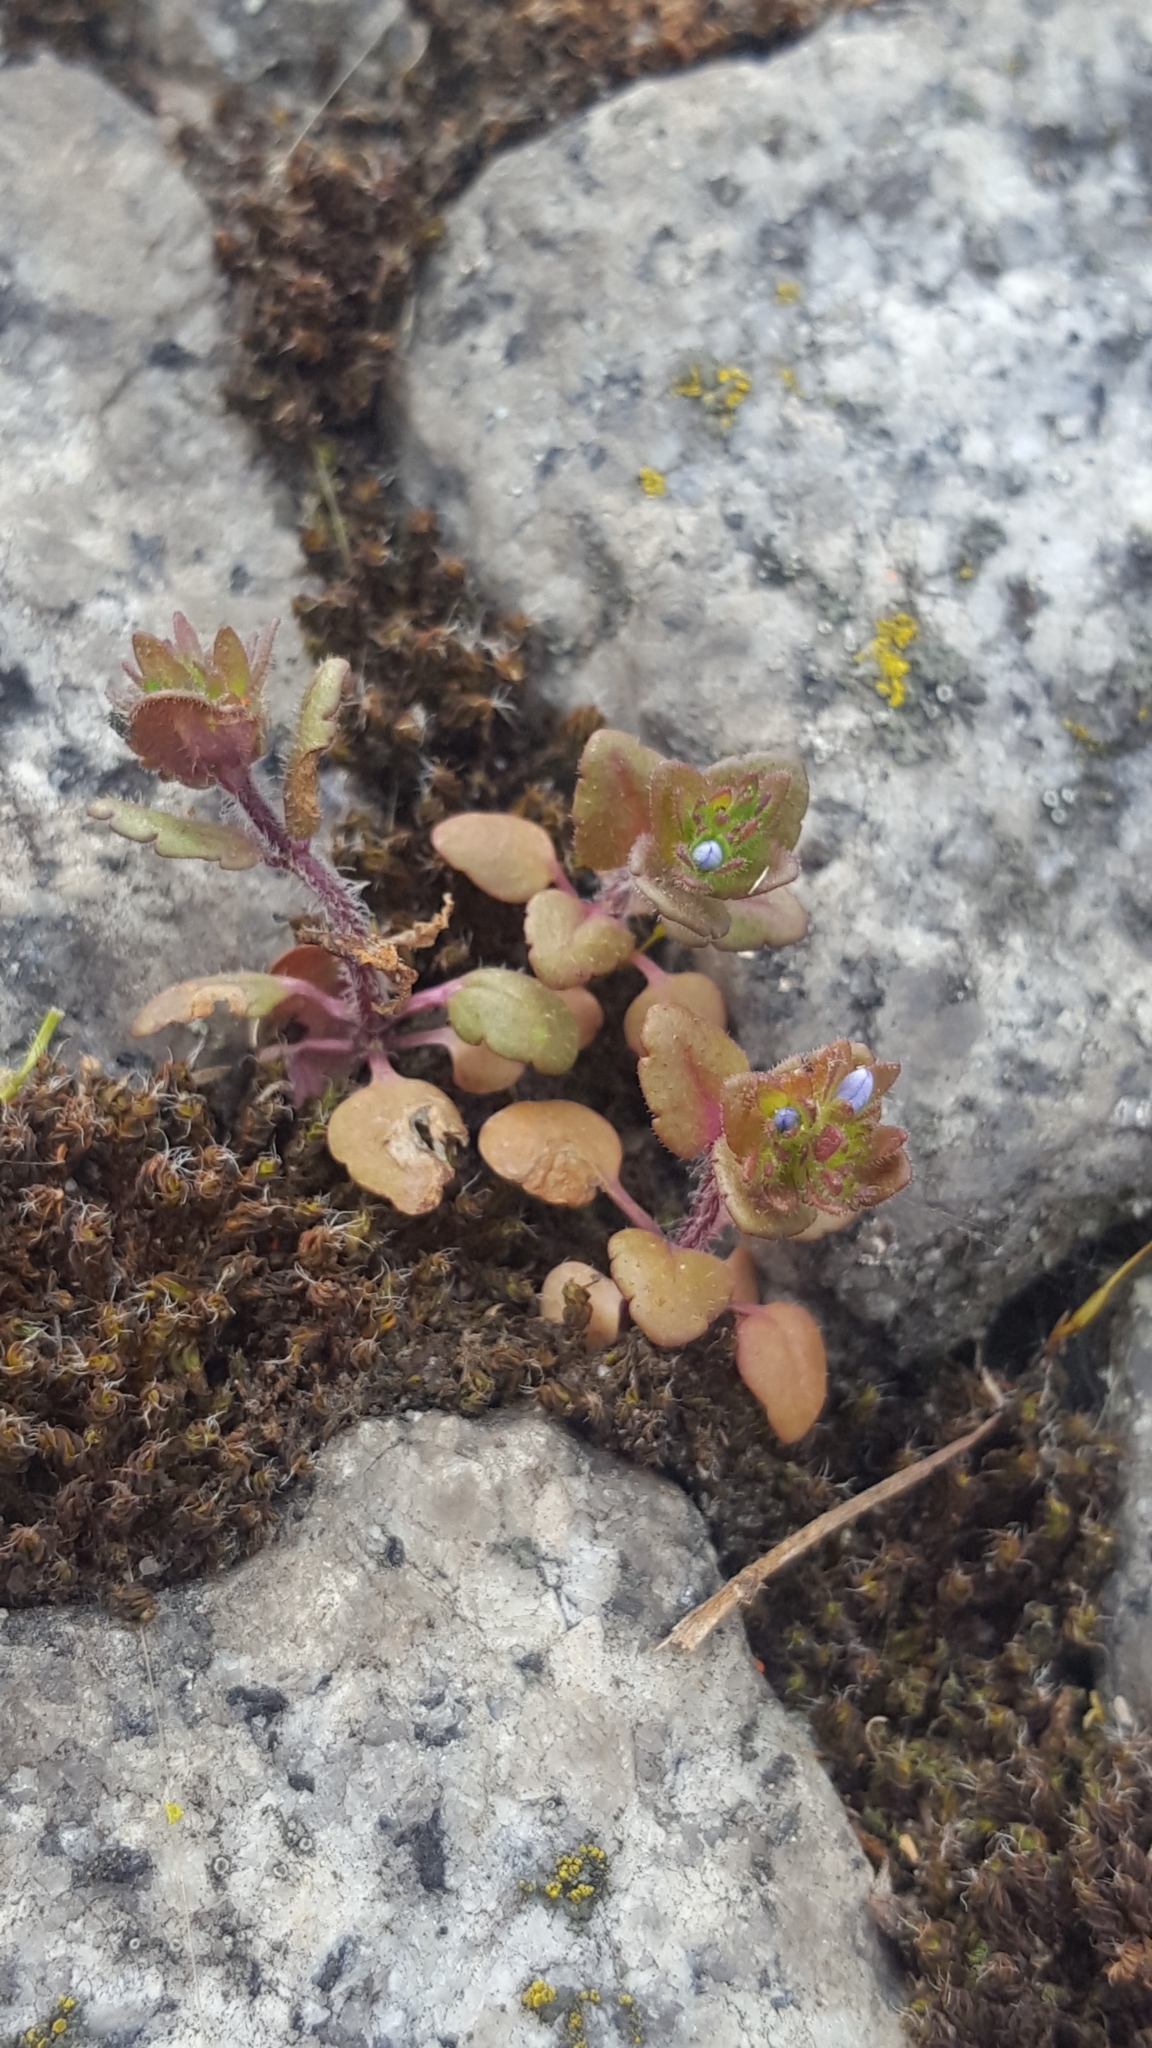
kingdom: Plantae
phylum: Tracheophyta
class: Magnoliopsida
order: Lamiales
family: Plantaginaceae
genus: Veronica
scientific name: Veronica arvensis
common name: Corn speedwell
